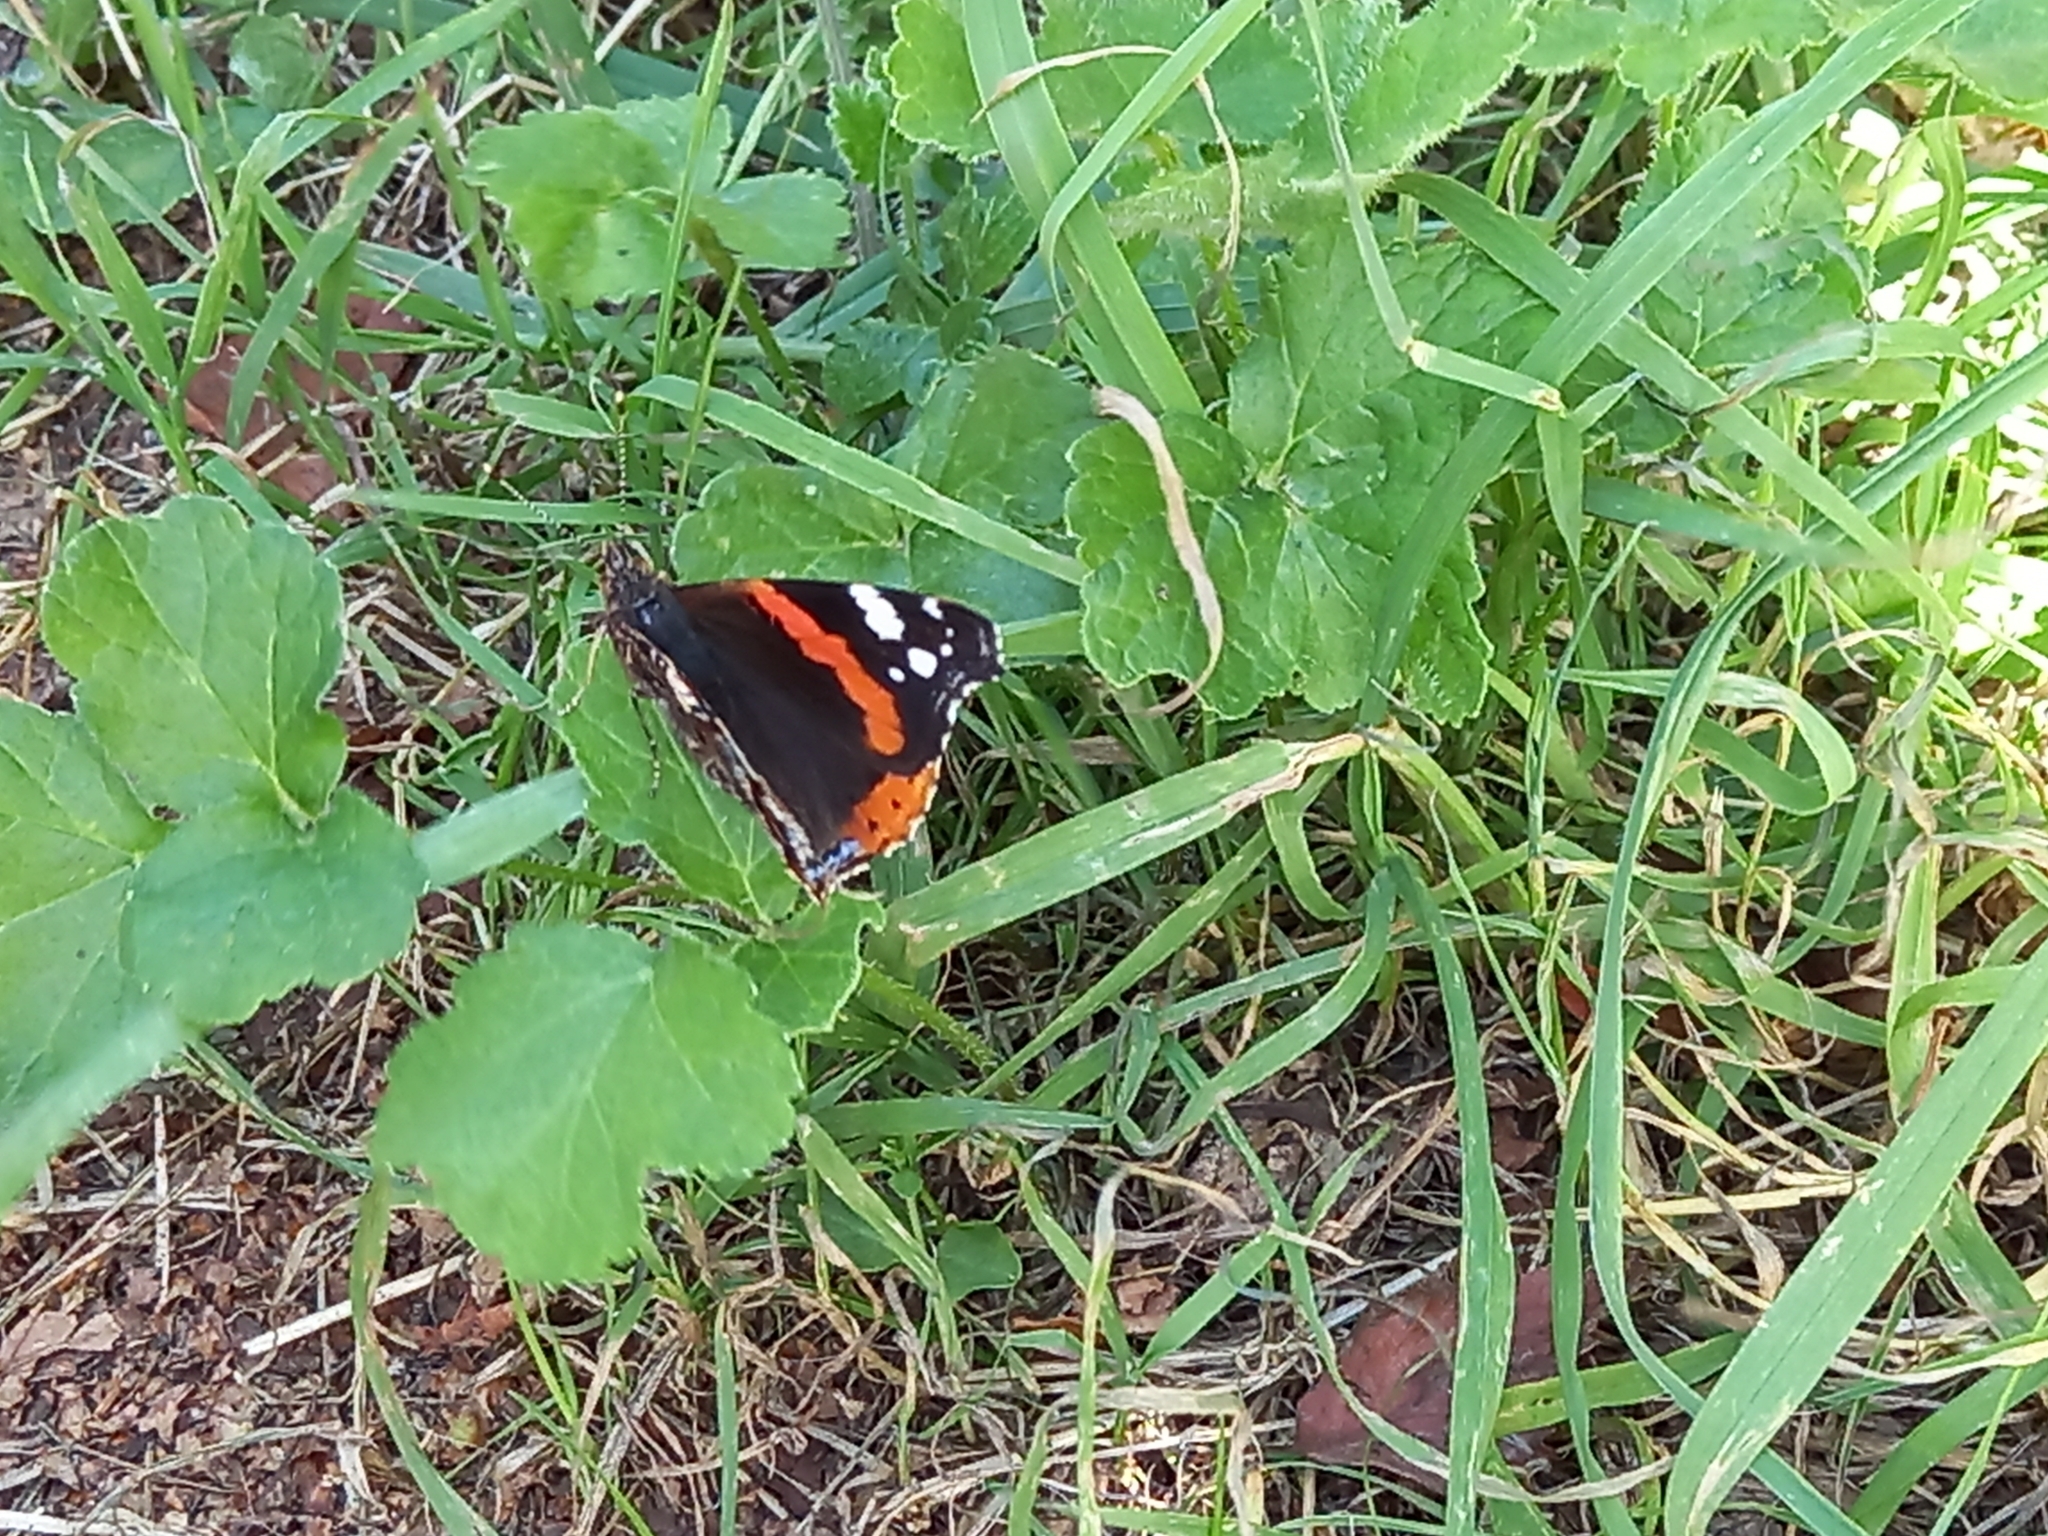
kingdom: Animalia
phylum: Arthropoda
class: Insecta
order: Lepidoptera
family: Nymphalidae
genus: Vanessa
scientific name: Vanessa atalanta
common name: Red admiral
